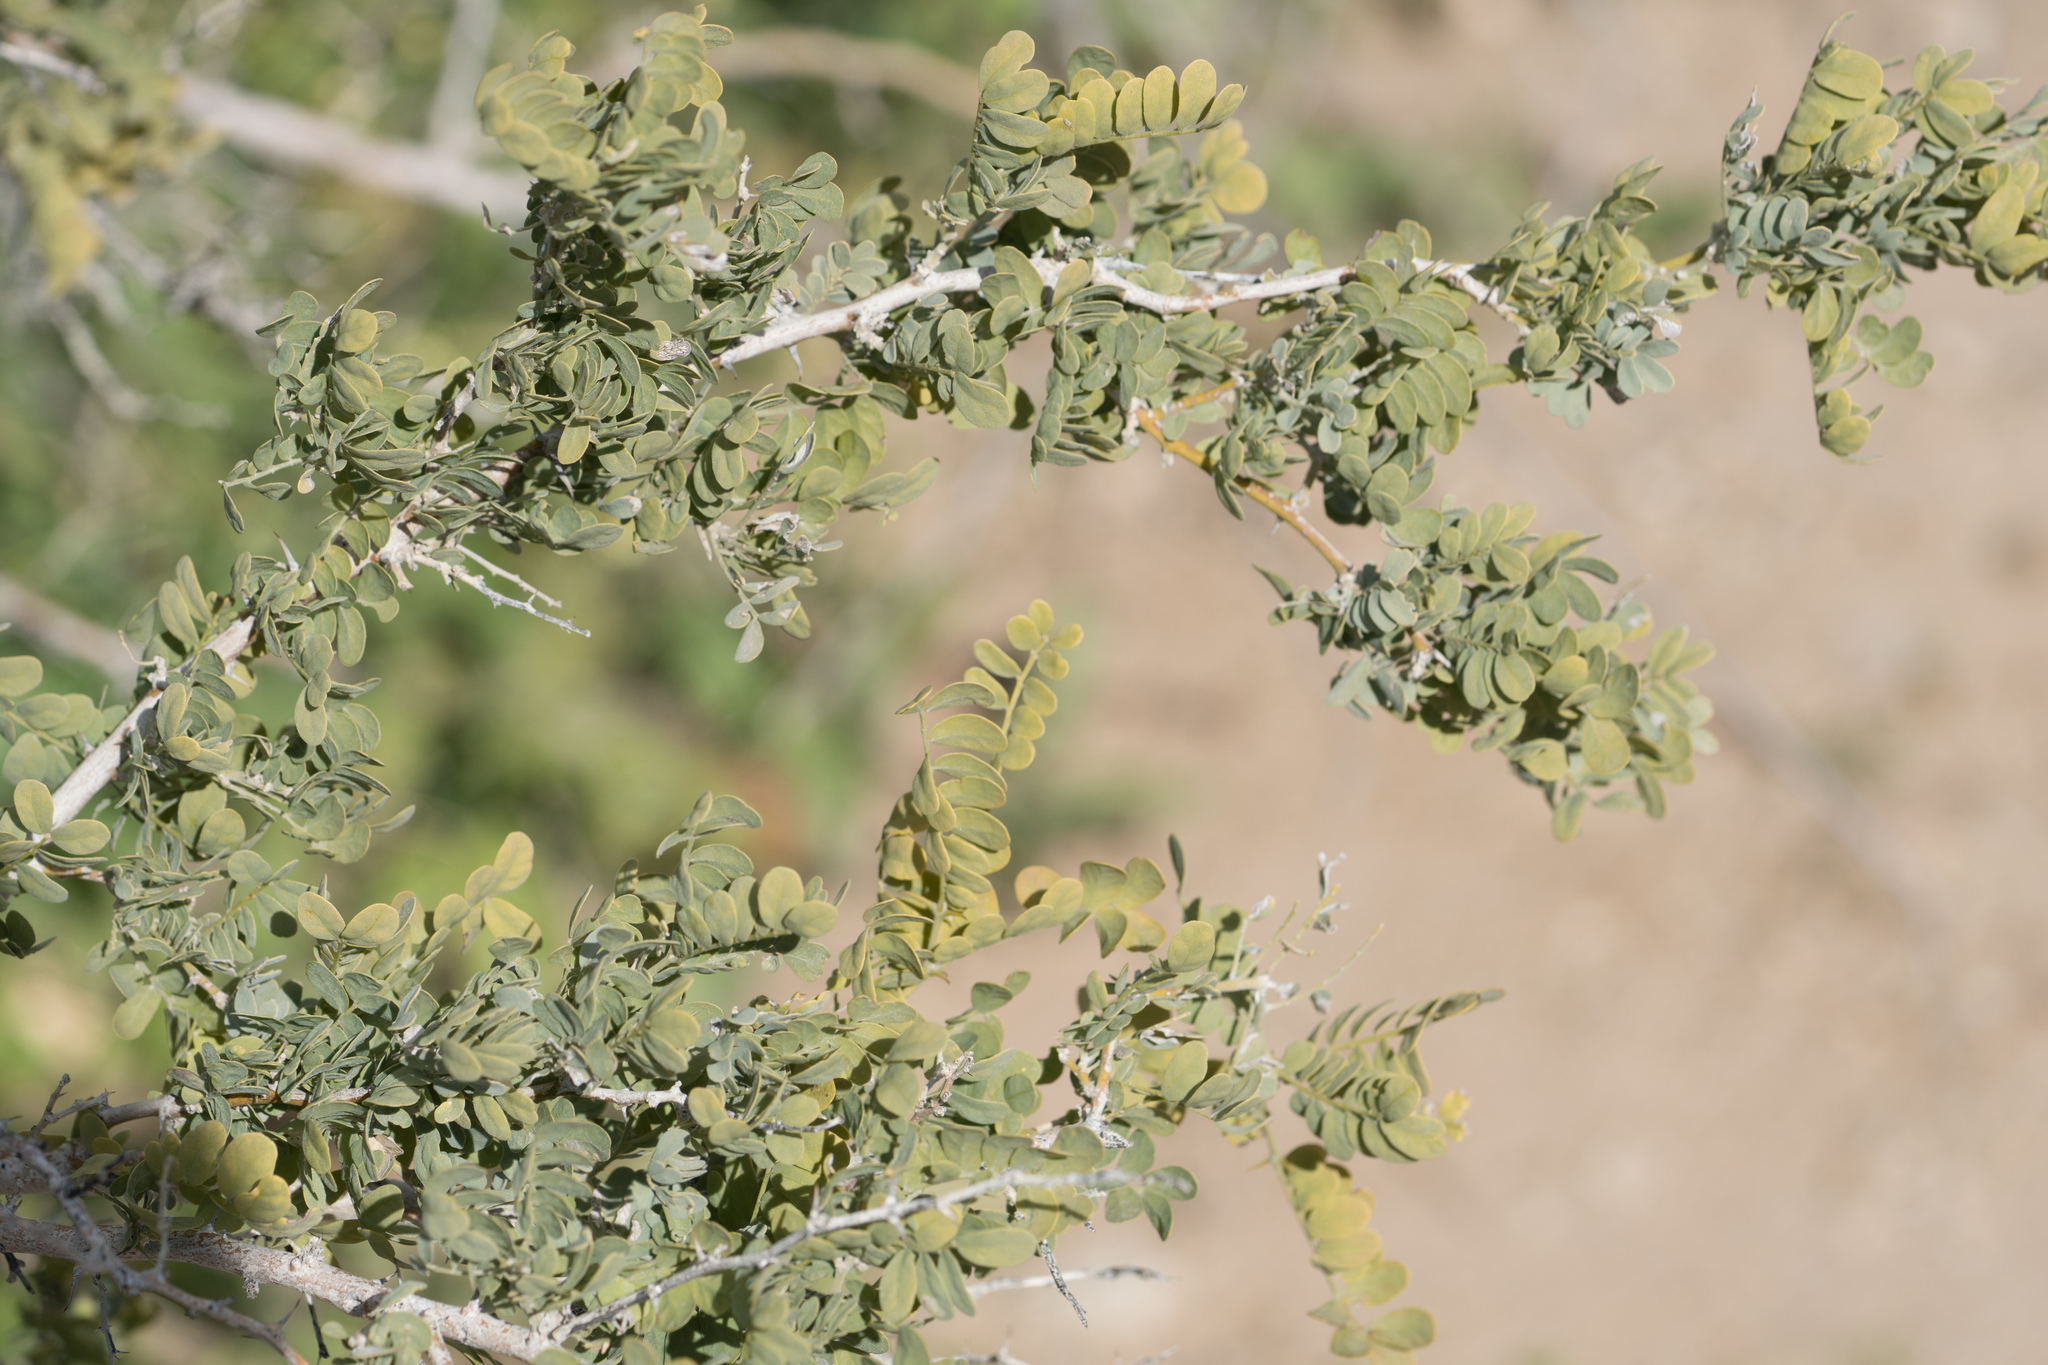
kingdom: Plantae
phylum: Tracheophyta
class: Magnoliopsida
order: Fabales
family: Fabaceae
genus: Olneya
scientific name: Olneya tesota
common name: Desert ironwood
